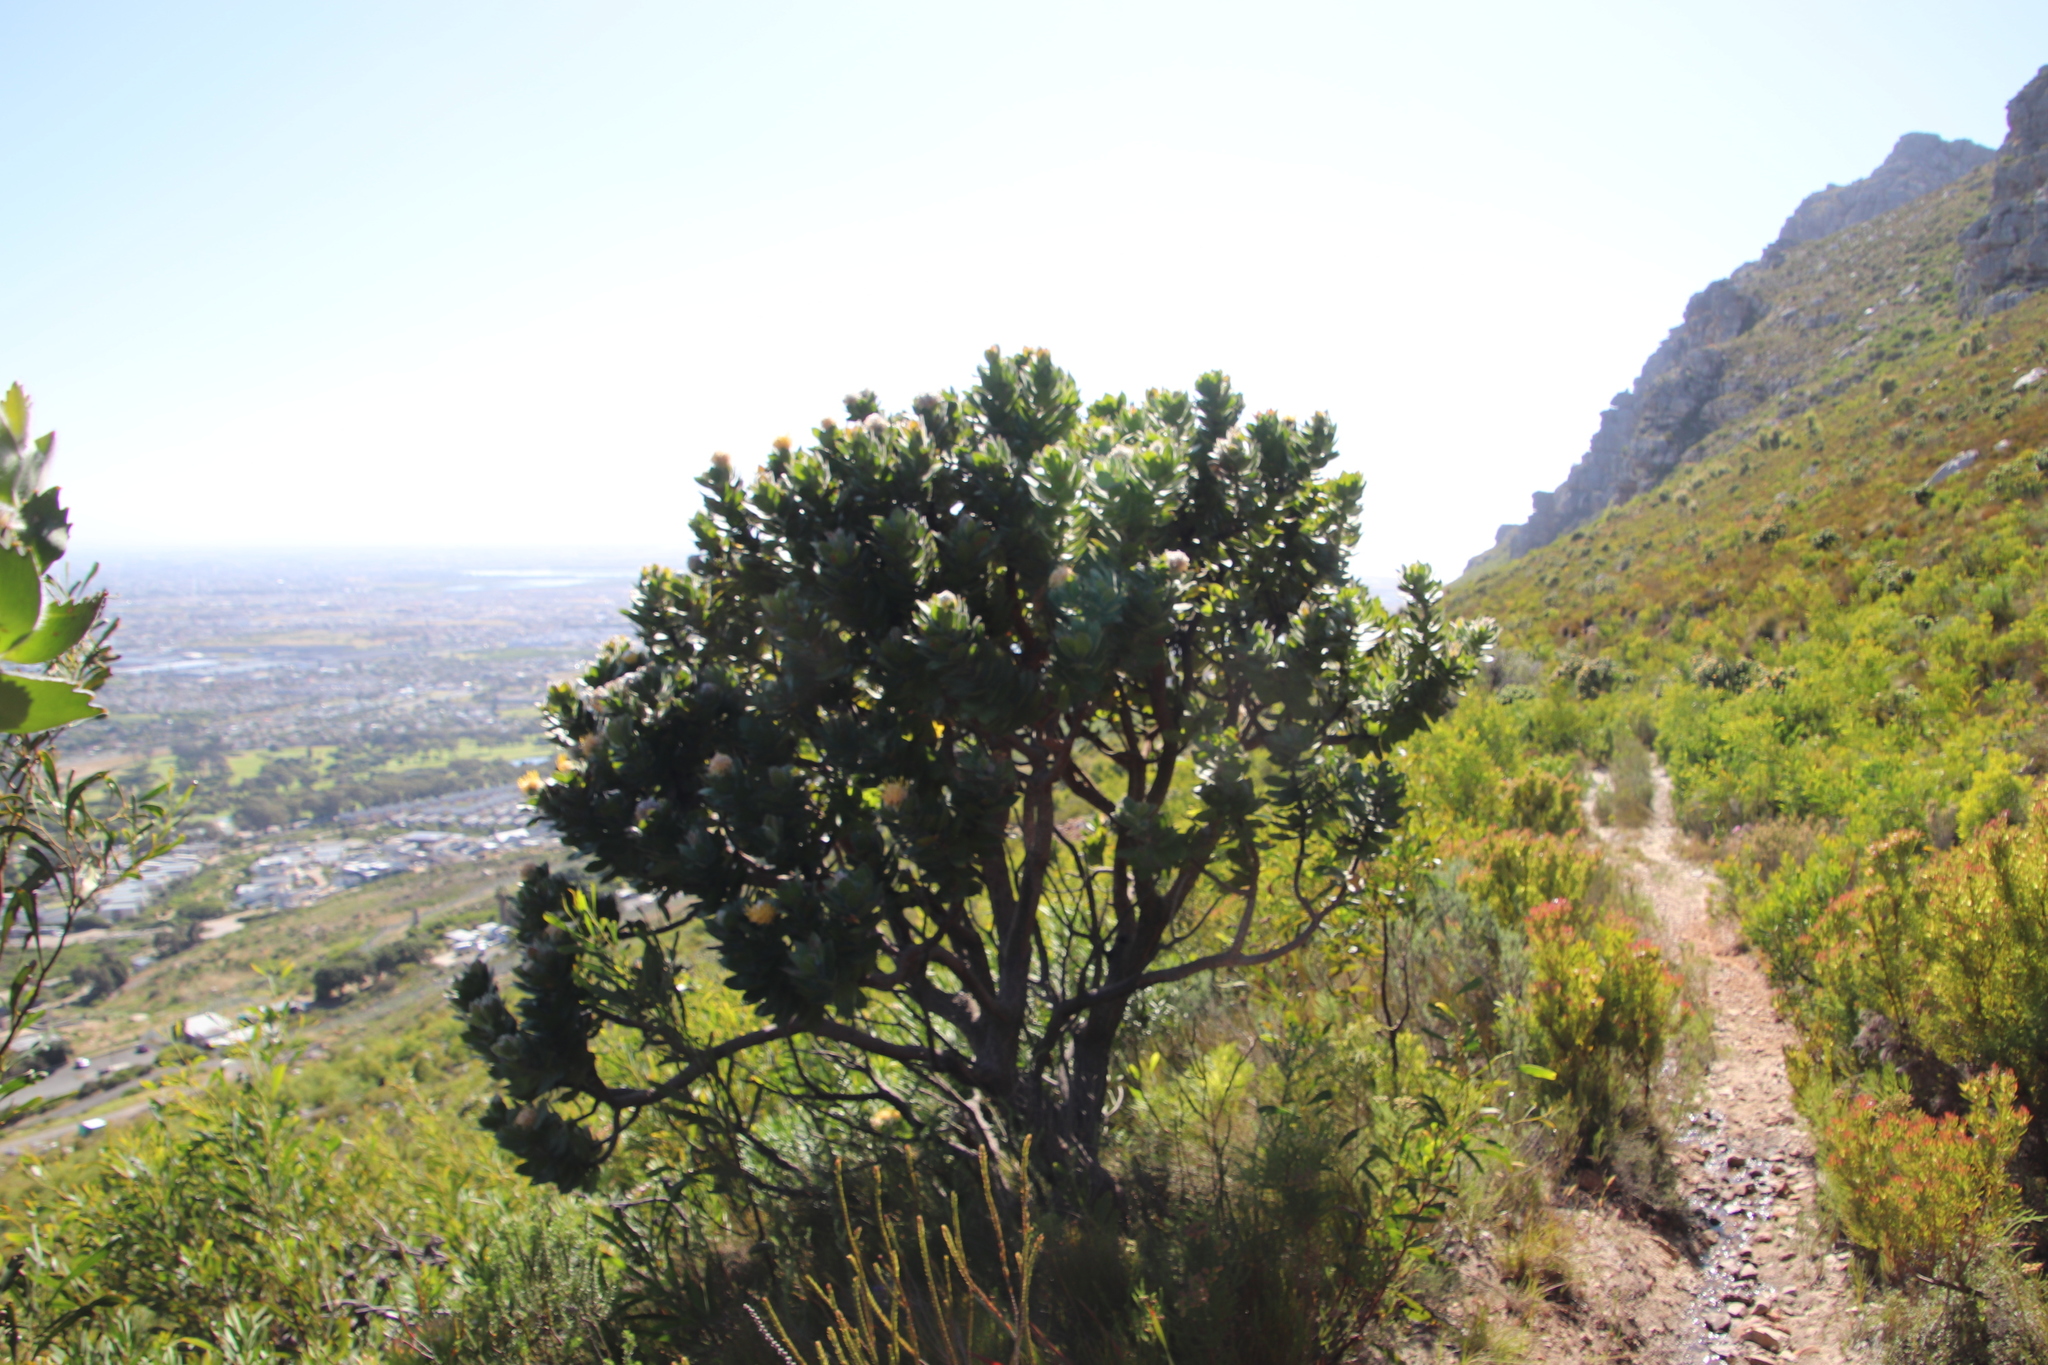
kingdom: Plantae
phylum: Tracheophyta
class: Magnoliopsida
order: Proteales
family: Proteaceae
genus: Leucospermum
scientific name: Leucospermum conocarpodendron
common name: Tree pincushion
